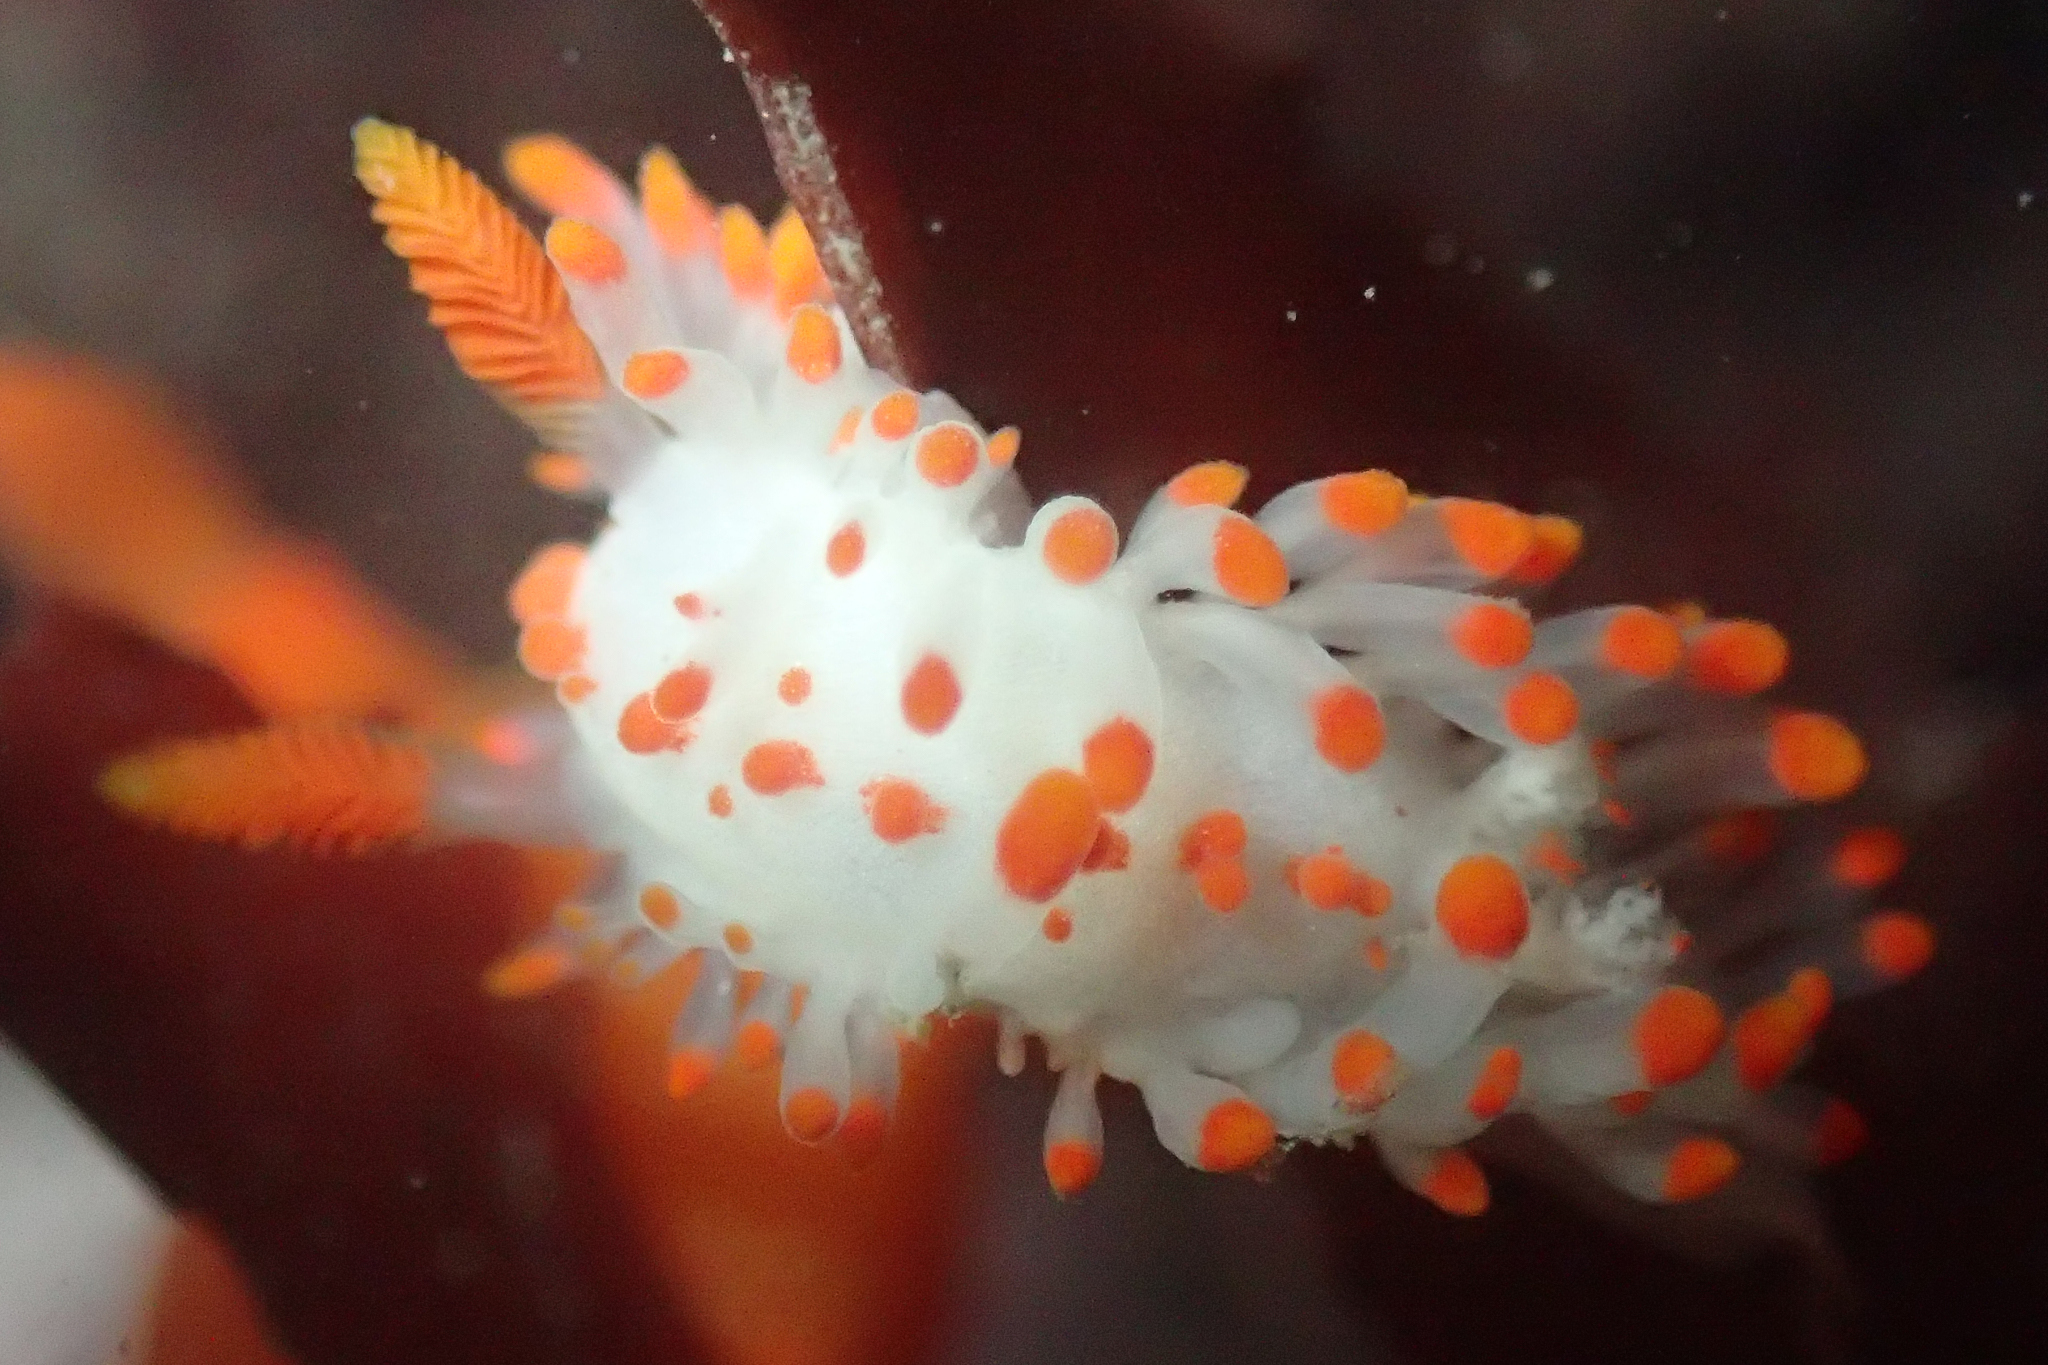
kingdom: Animalia
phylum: Mollusca
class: Gastropoda
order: Nudibranchia
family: Polyceridae
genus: Limacia
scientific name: Limacia mcdonaldi
